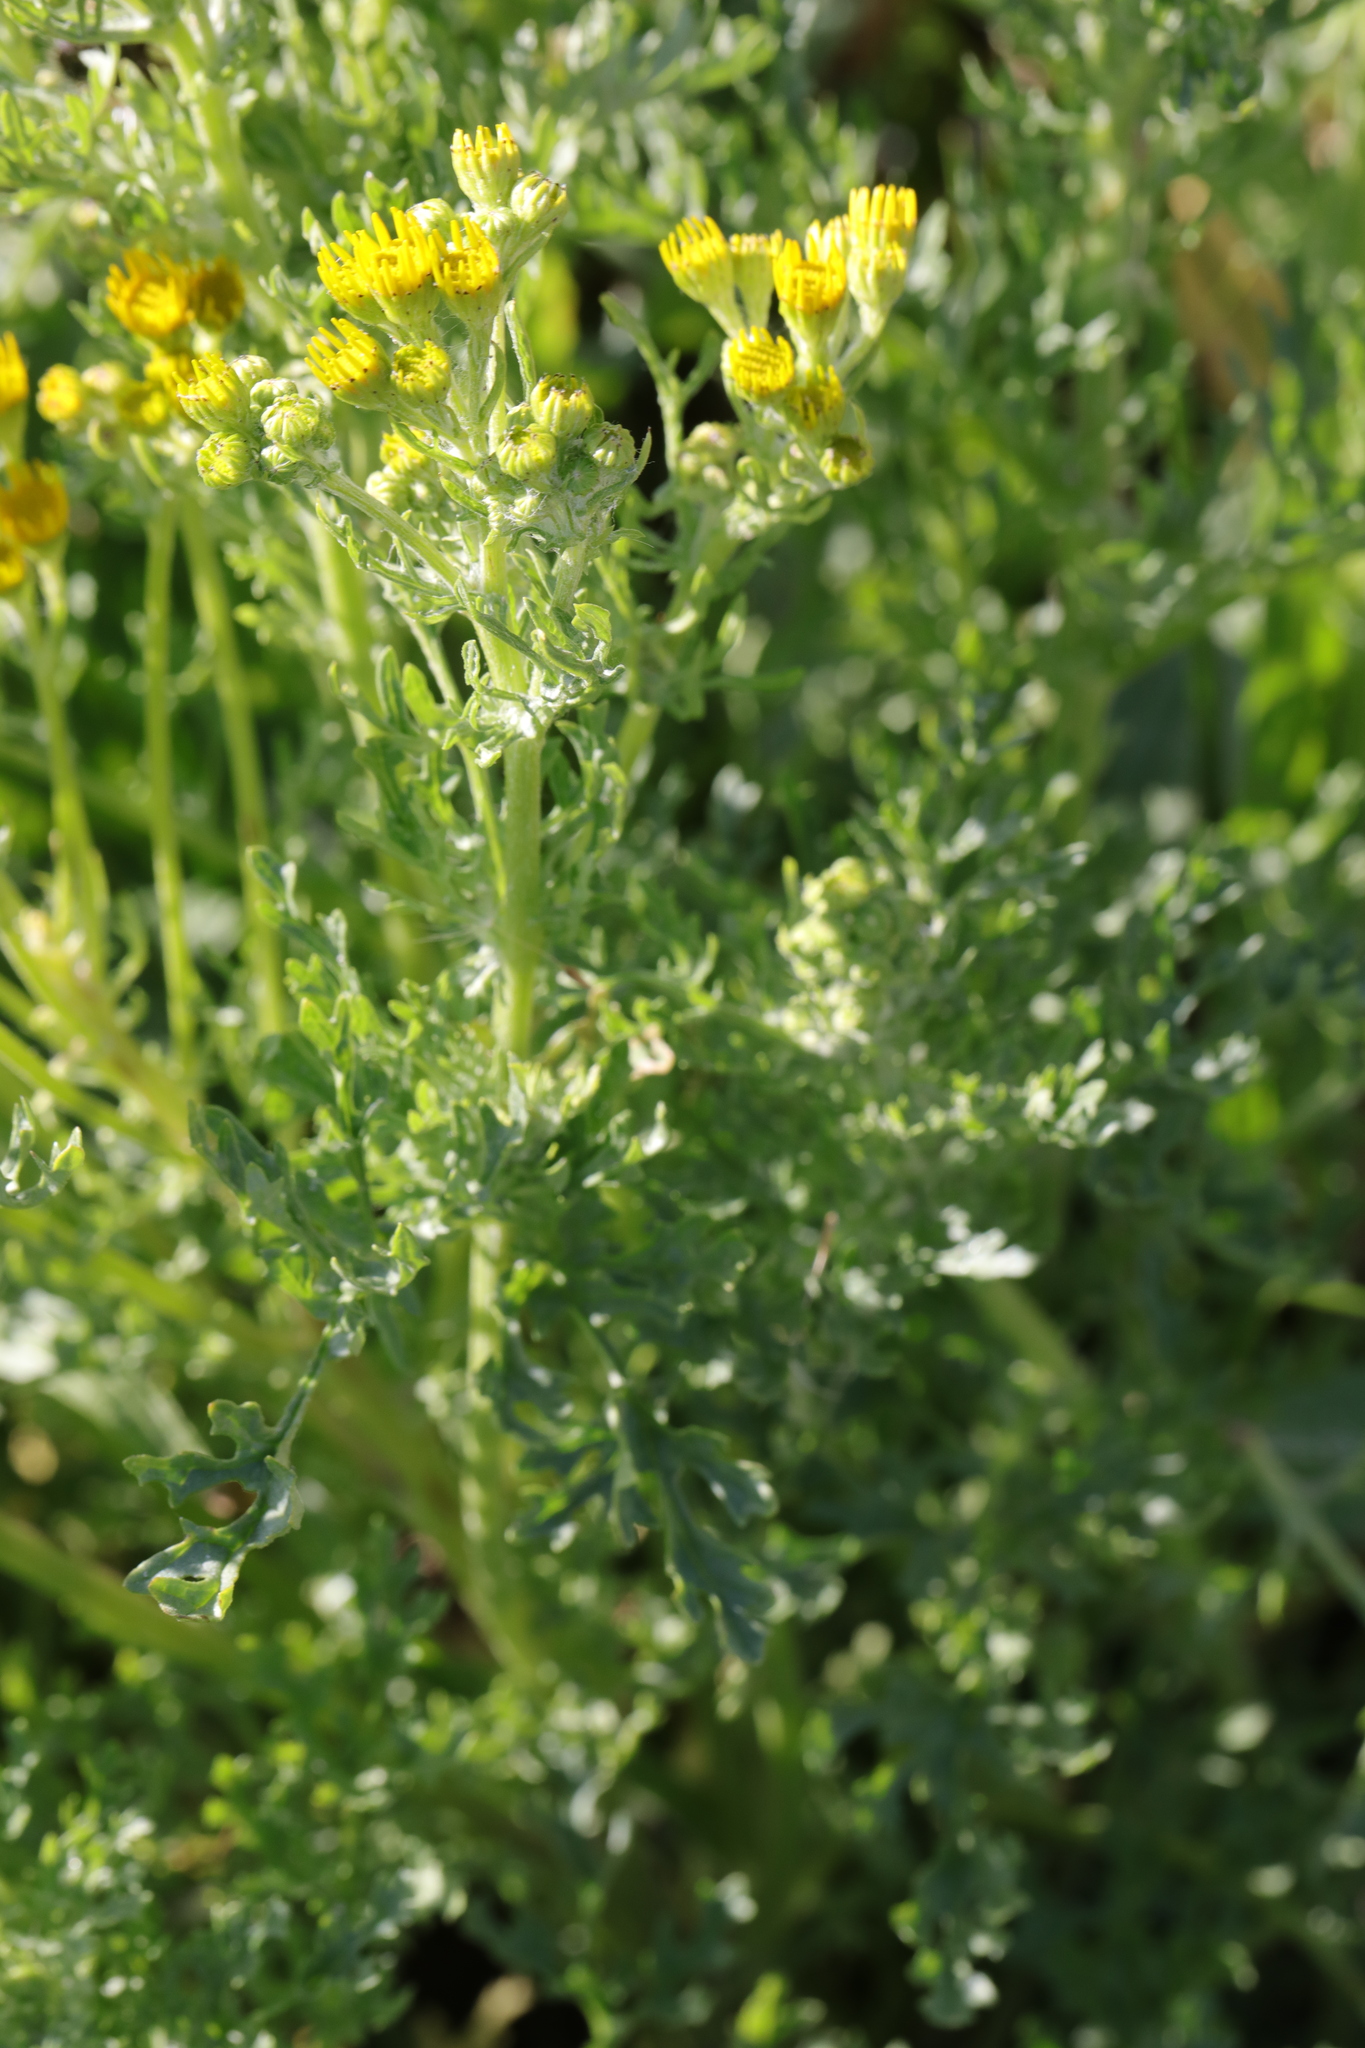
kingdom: Plantae
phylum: Tracheophyta
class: Magnoliopsida
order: Asterales
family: Asteraceae
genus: Jacobaea
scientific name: Jacobaea vulgaris
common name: Stinking willie
